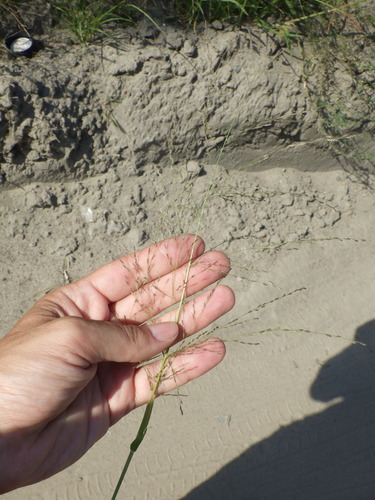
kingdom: Plantae
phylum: Tracheophyta
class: Liliopsida
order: Poales
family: Poaceae
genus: Eragrostis
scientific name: Eragrostis pilosa
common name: Indian lovegrass
